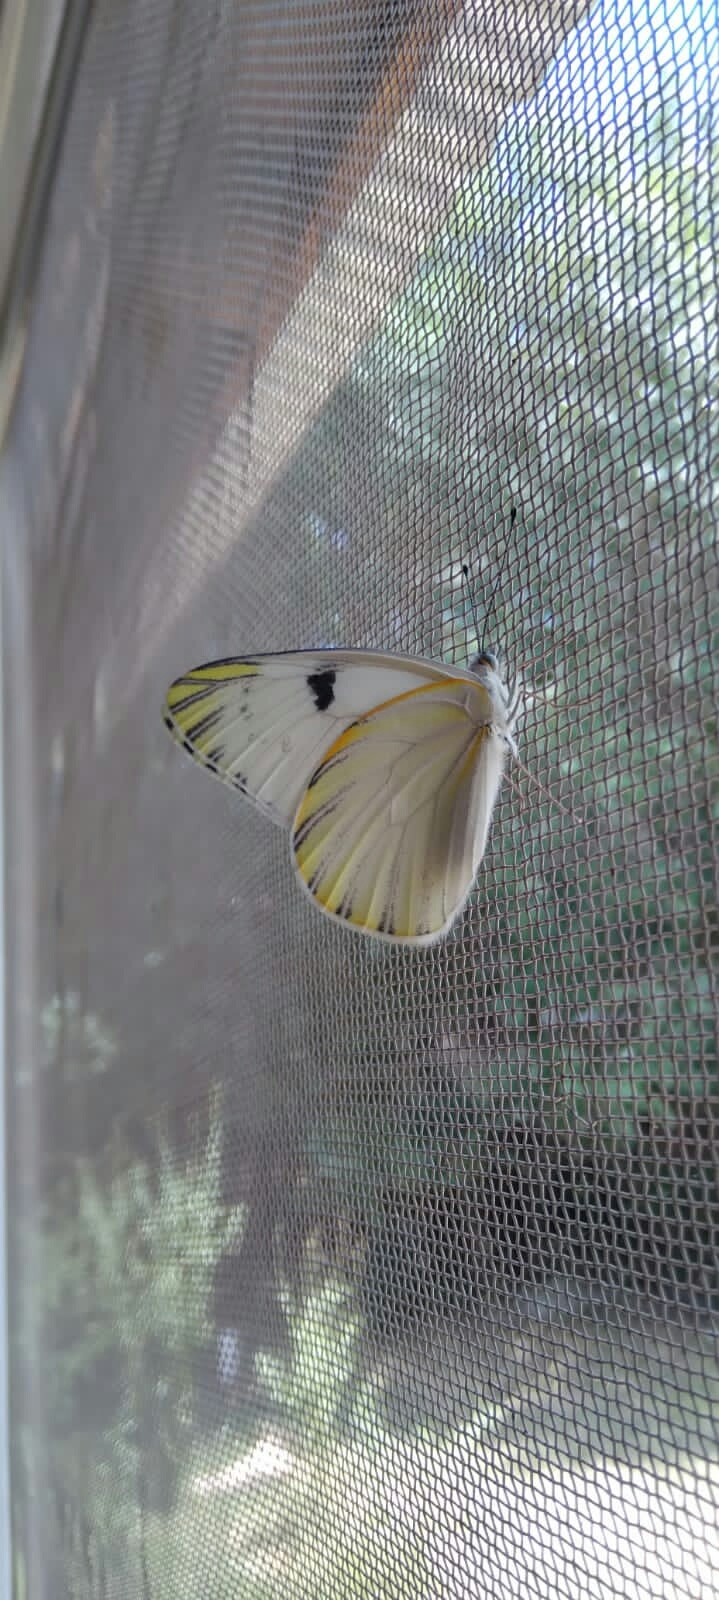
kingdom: Animalia
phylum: Arthropoda
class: Insecta
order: Lepidoptera
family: Pieridae
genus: Tatochila
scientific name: Tatochila mercedis
